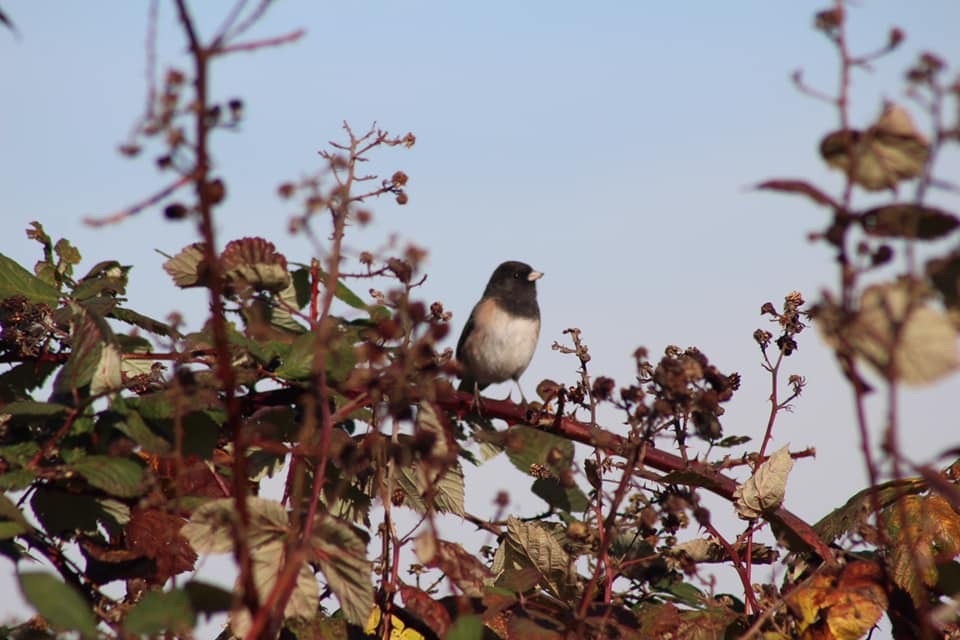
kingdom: Animalia
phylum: Chordata
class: Aves
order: Passeriformes
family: Passerellidae
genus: Junco
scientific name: Junco hyemalis
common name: Dark-eyed junco
